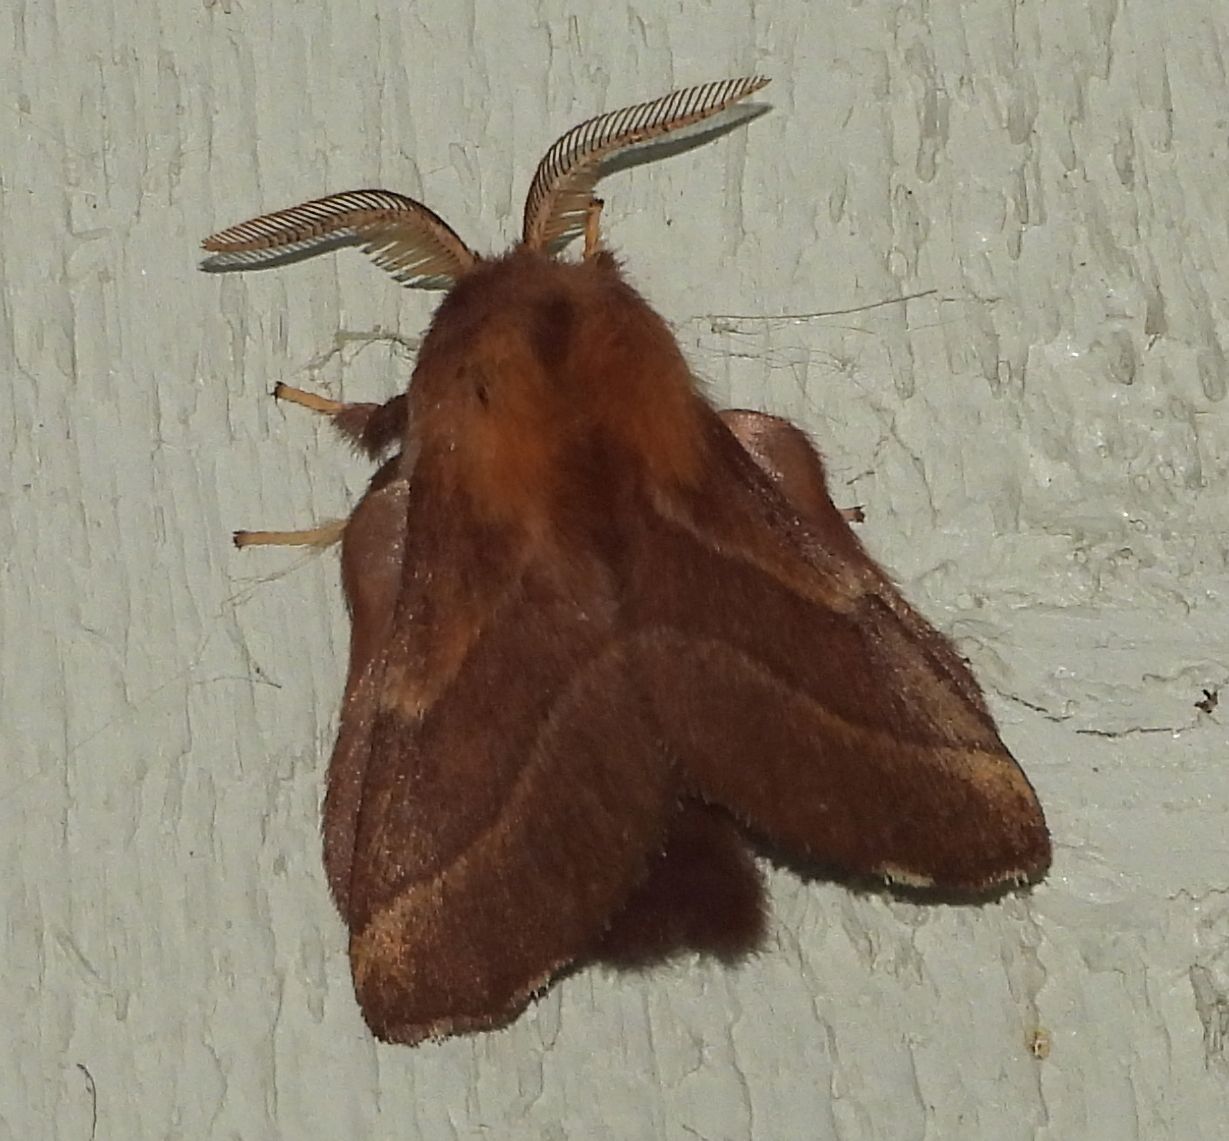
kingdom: Animalia
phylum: Arthropoda
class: Insecta
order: Lepidoptera
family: Lasiocampidae
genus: Malacosoma
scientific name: Malacosoma disstria
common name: Forest tent caterpillar
